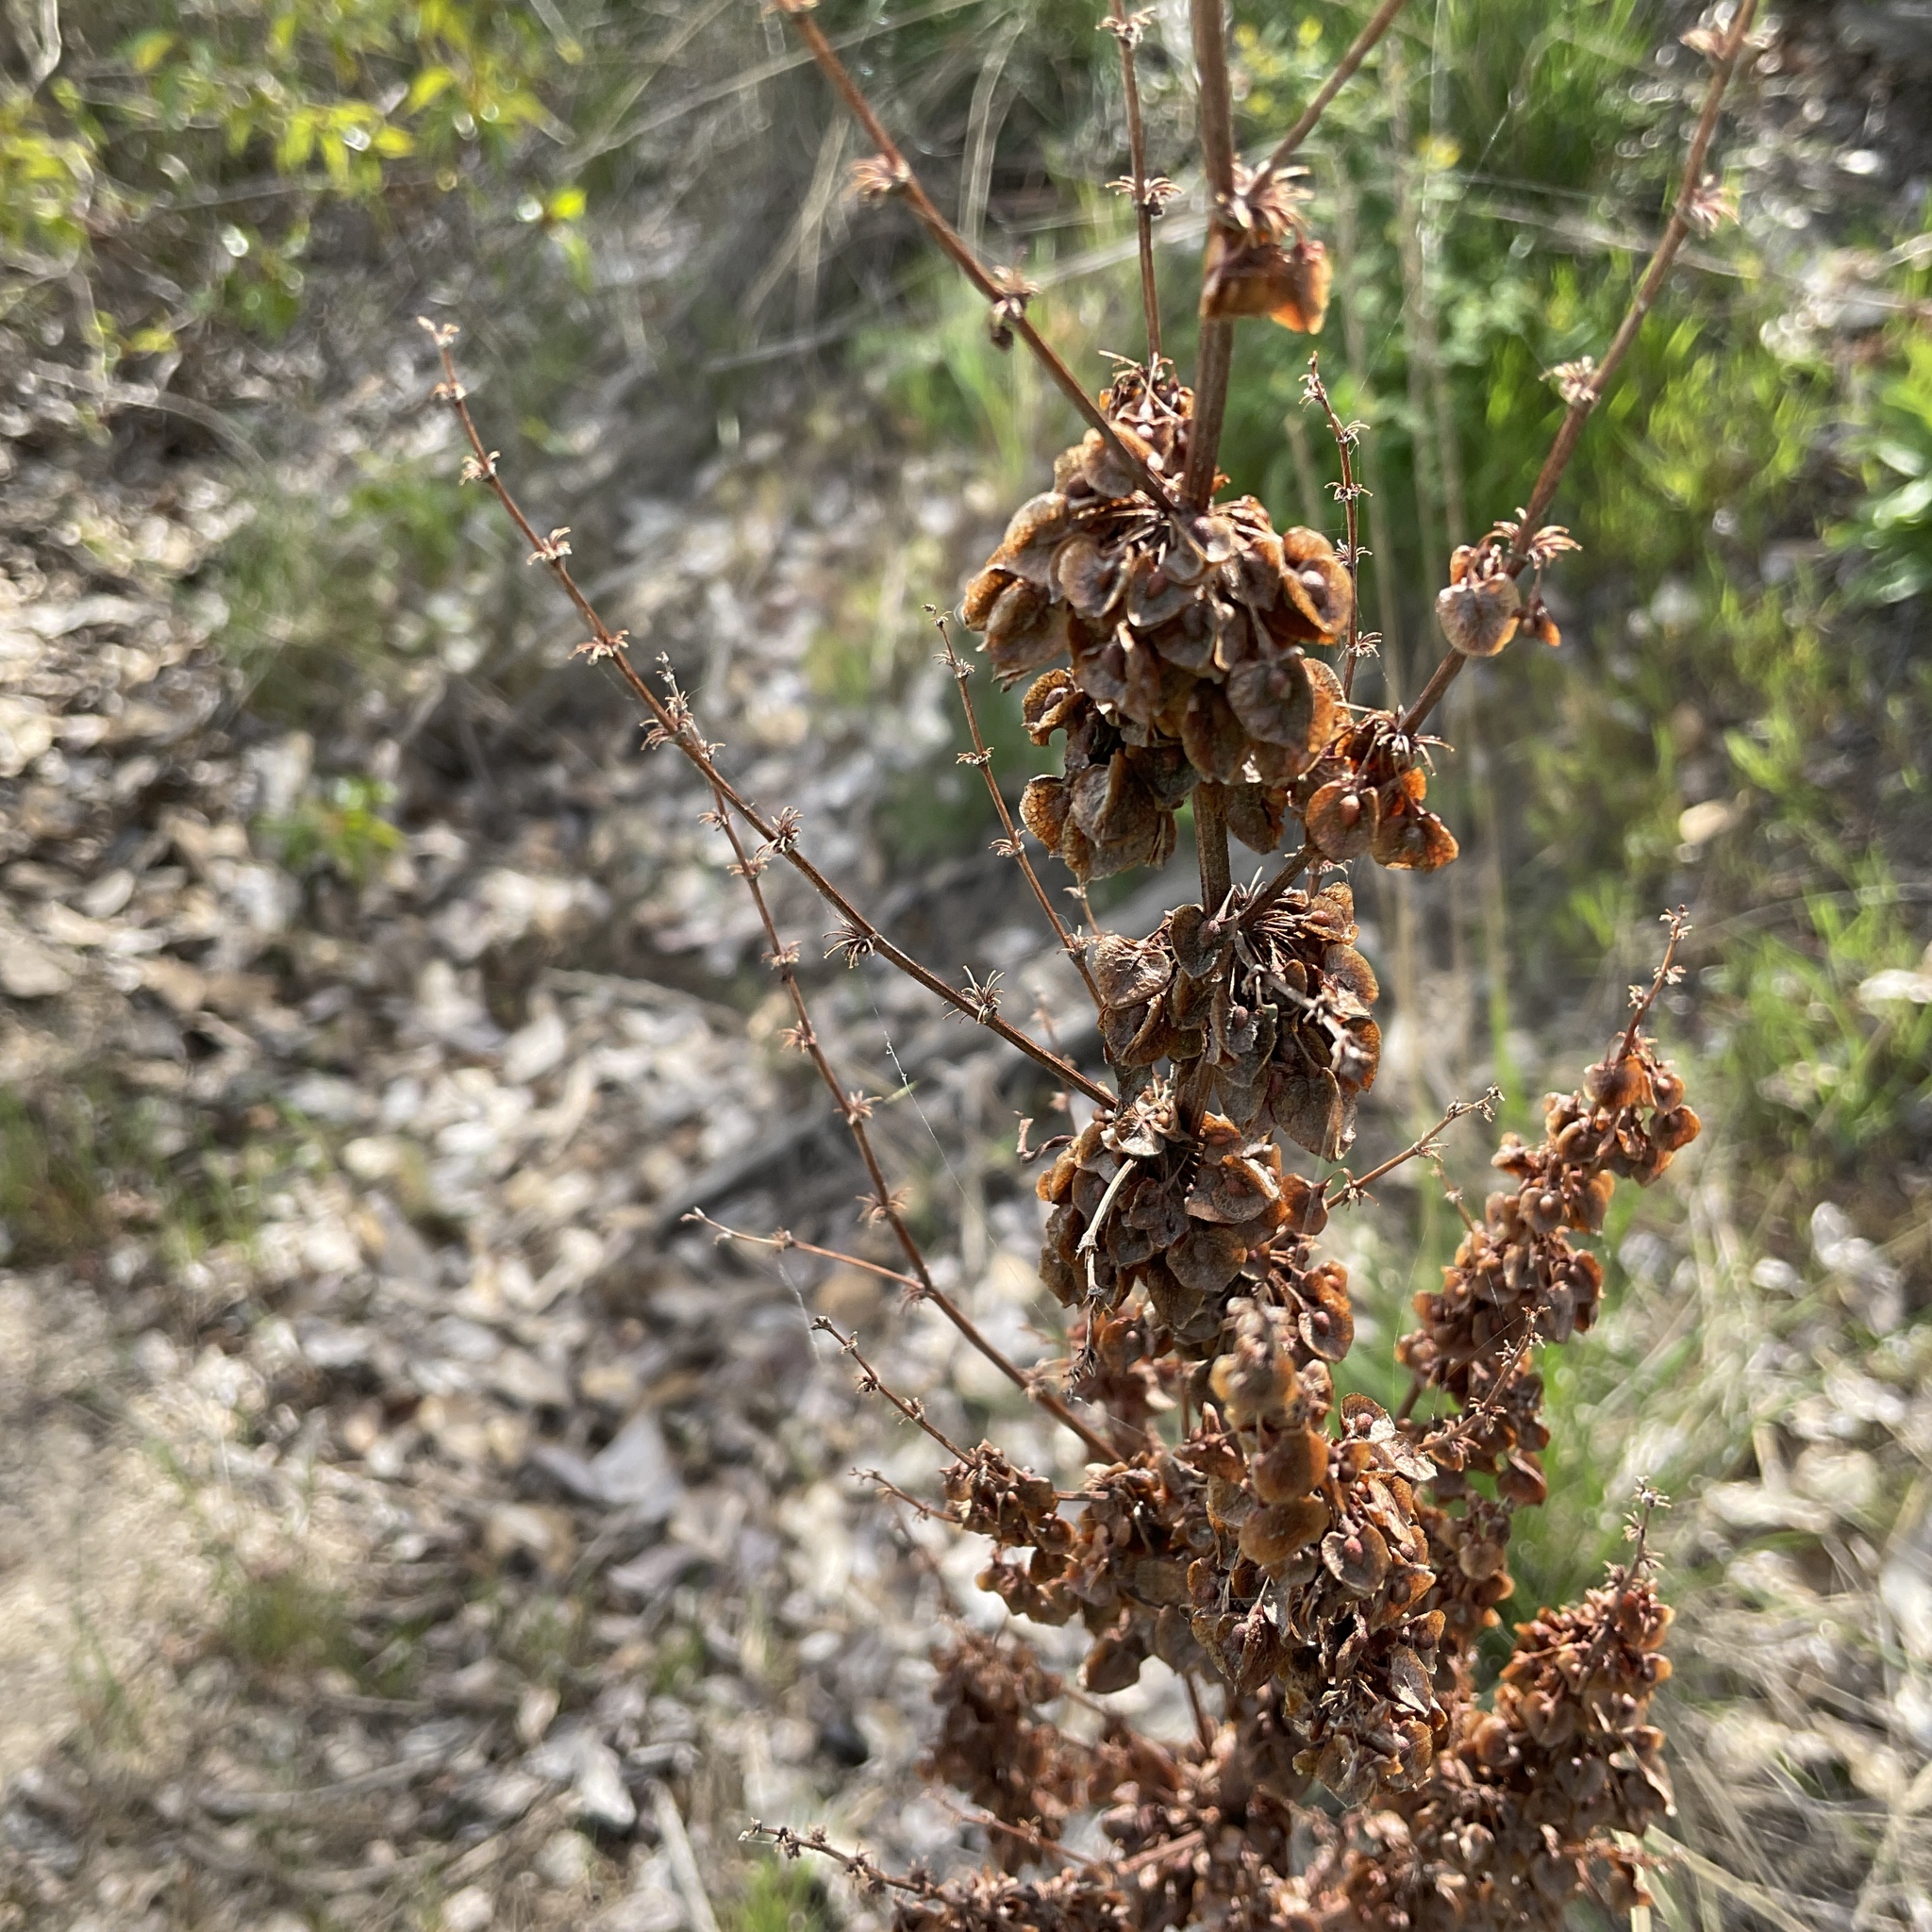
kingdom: Plantae
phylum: Tracheophyta
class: Magnoliopsida
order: Caryophyllales
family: Polygonaceae
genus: Rumex
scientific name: Rumex crispus
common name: Curled dock
